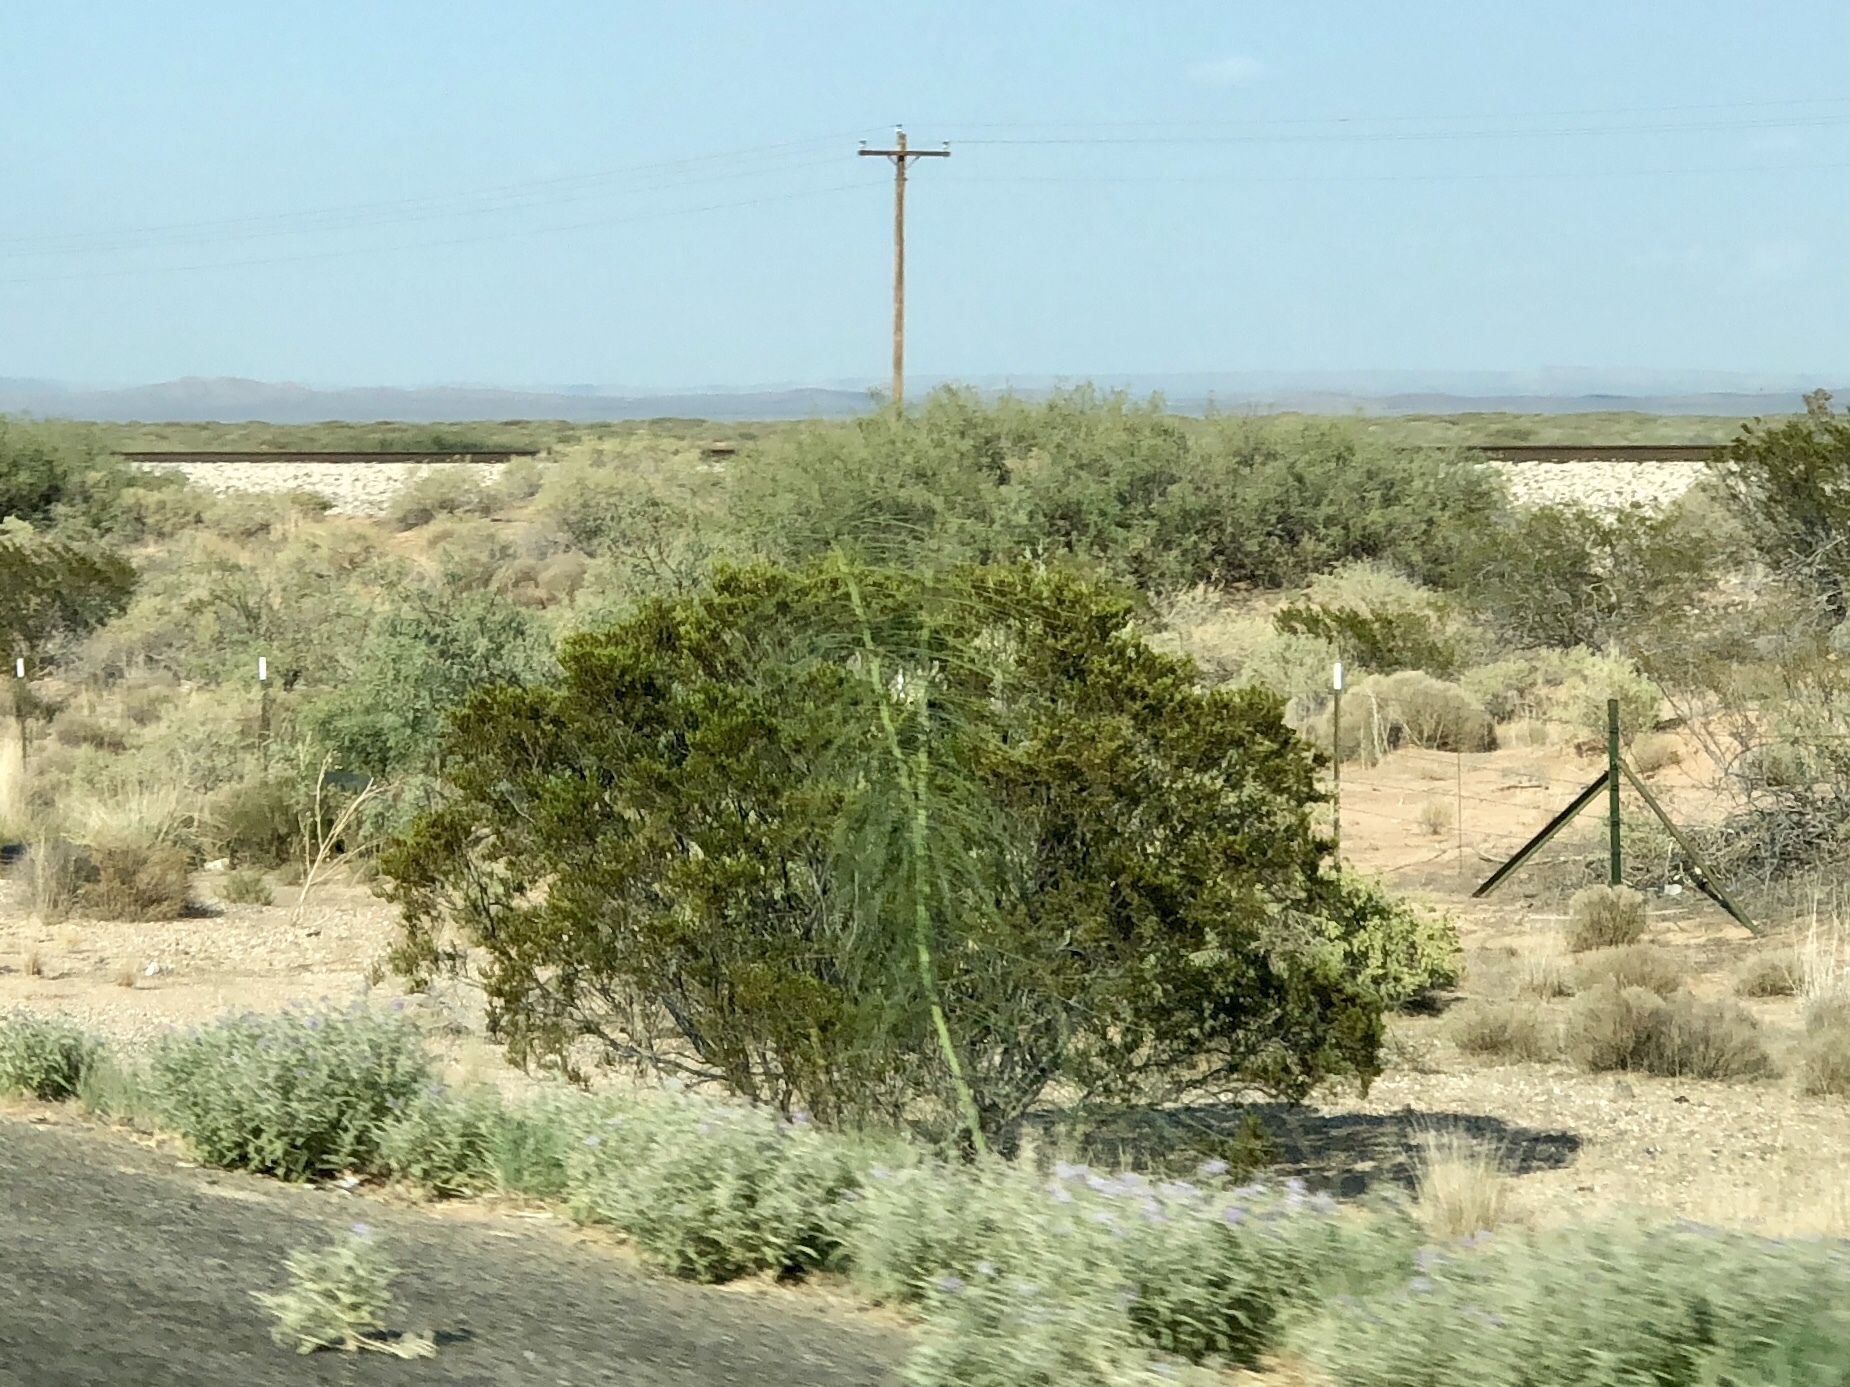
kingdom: Plantae
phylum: Tracheophyta
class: Magnoliopsida
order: Zygophyllales
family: Zygophyllaceae
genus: Larrea
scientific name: Larrea tridentata
